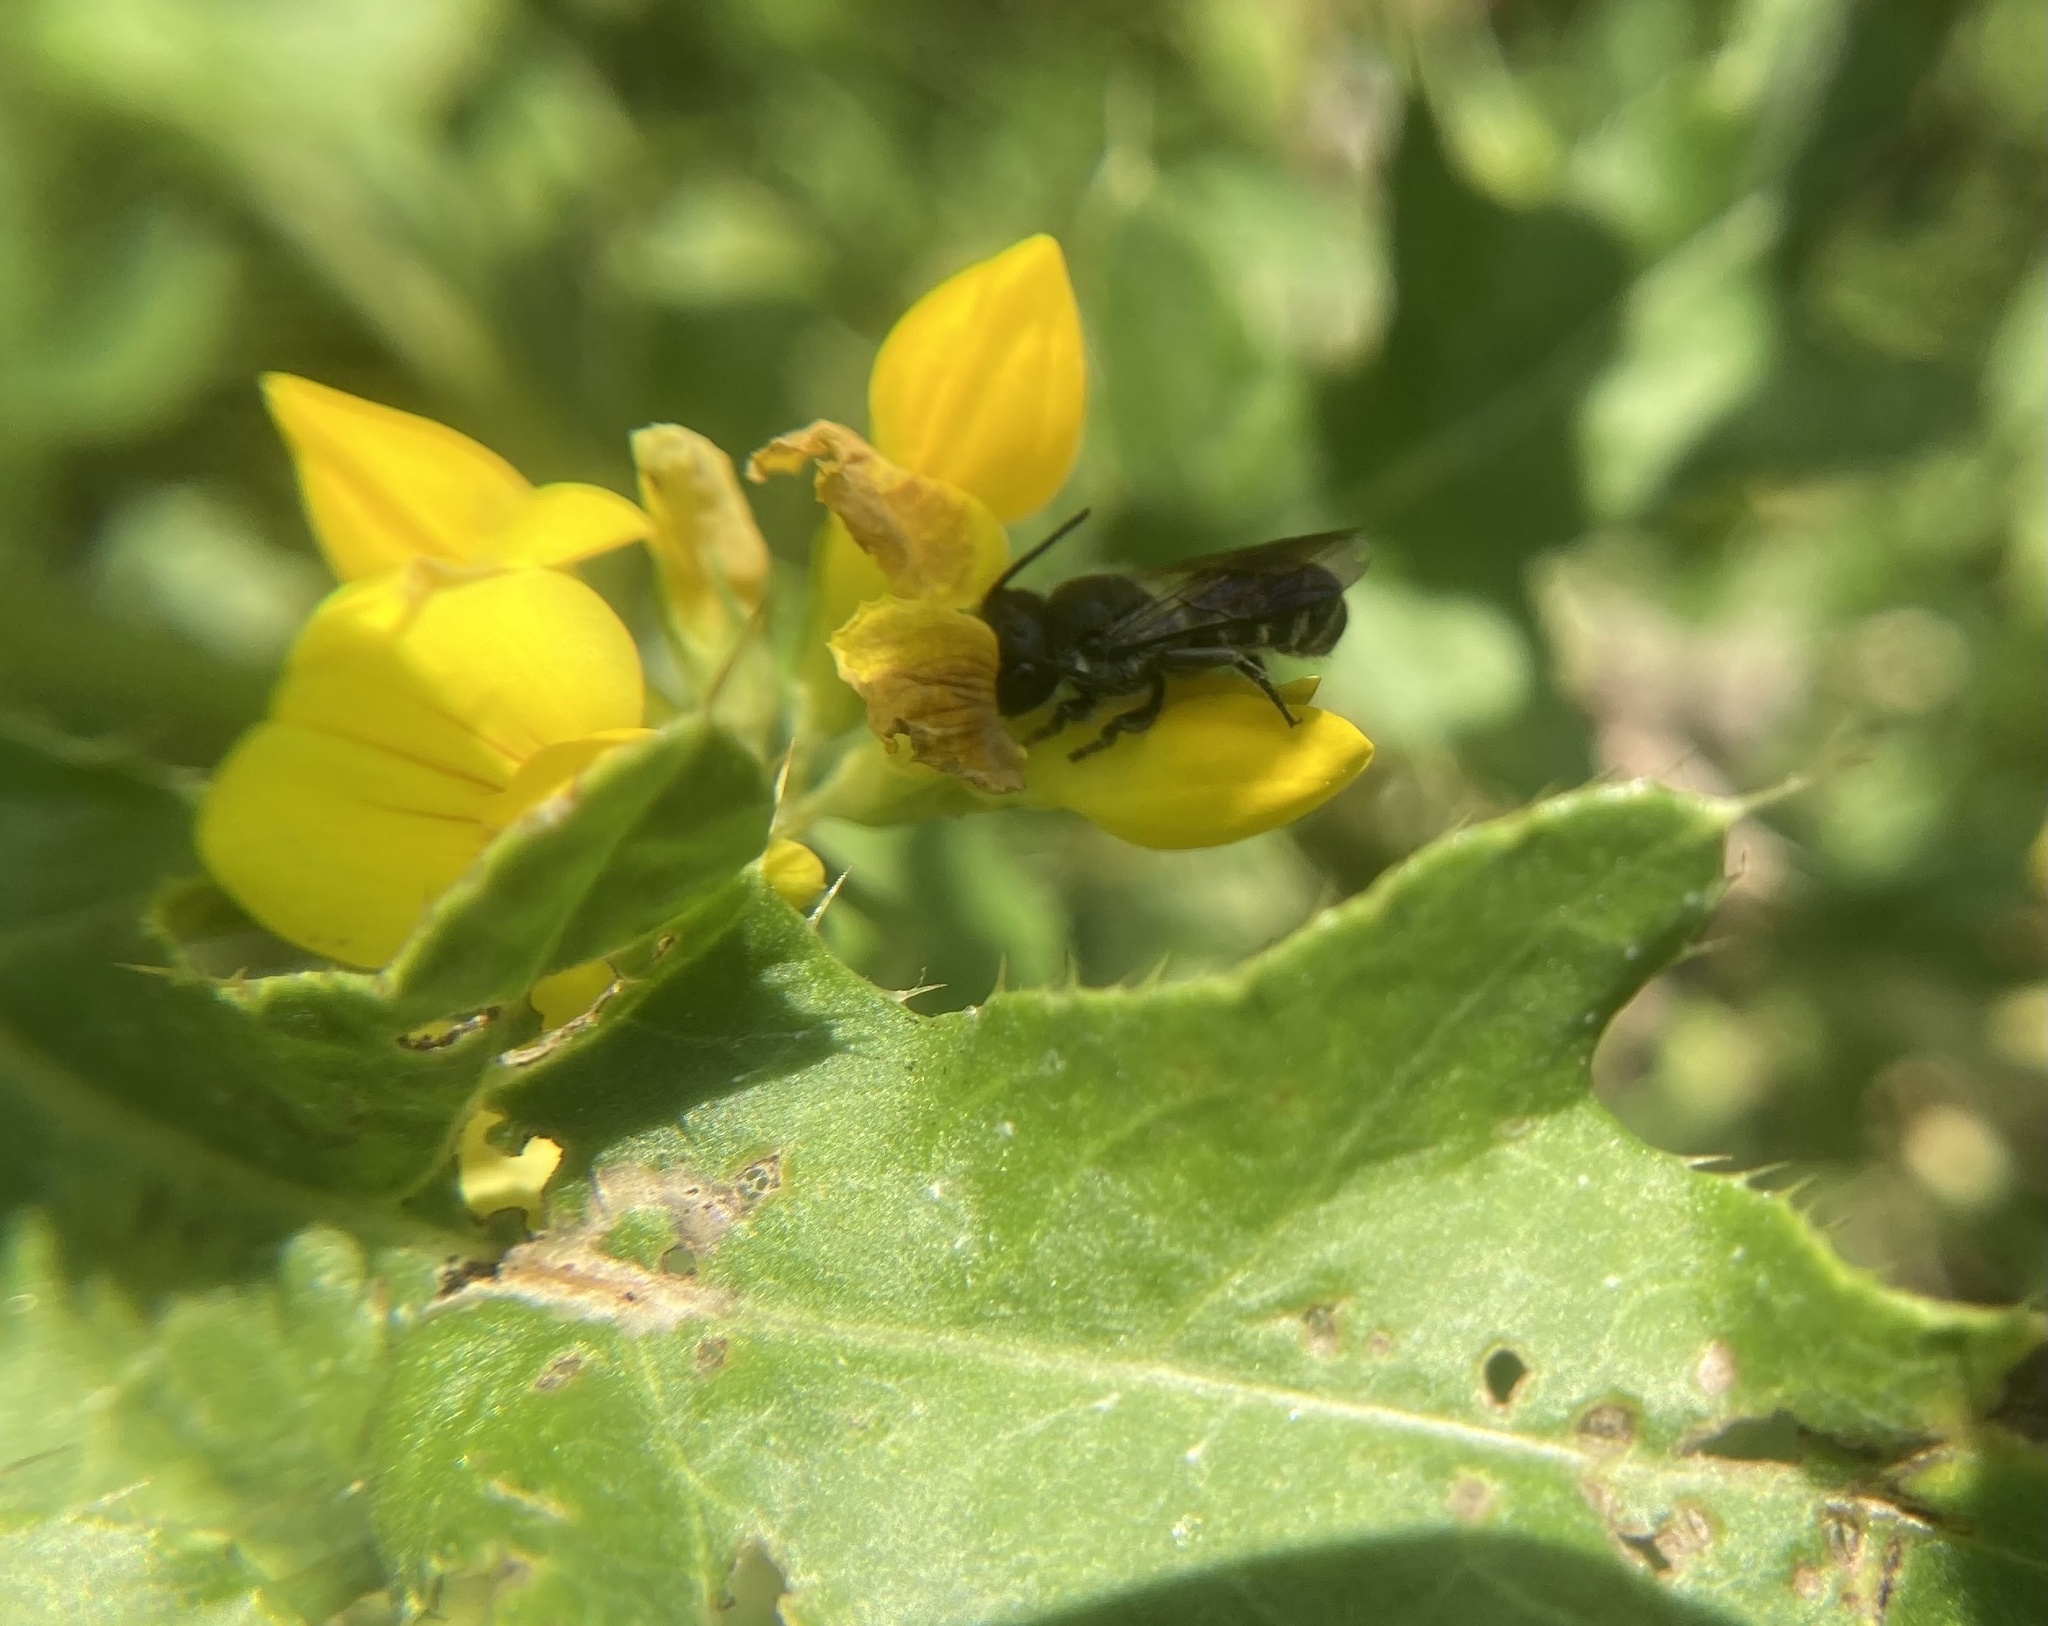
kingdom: Animalia
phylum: Arthropoda
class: Insecta
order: Hymenoptera
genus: Chelostomoides
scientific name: Chelostomoides
